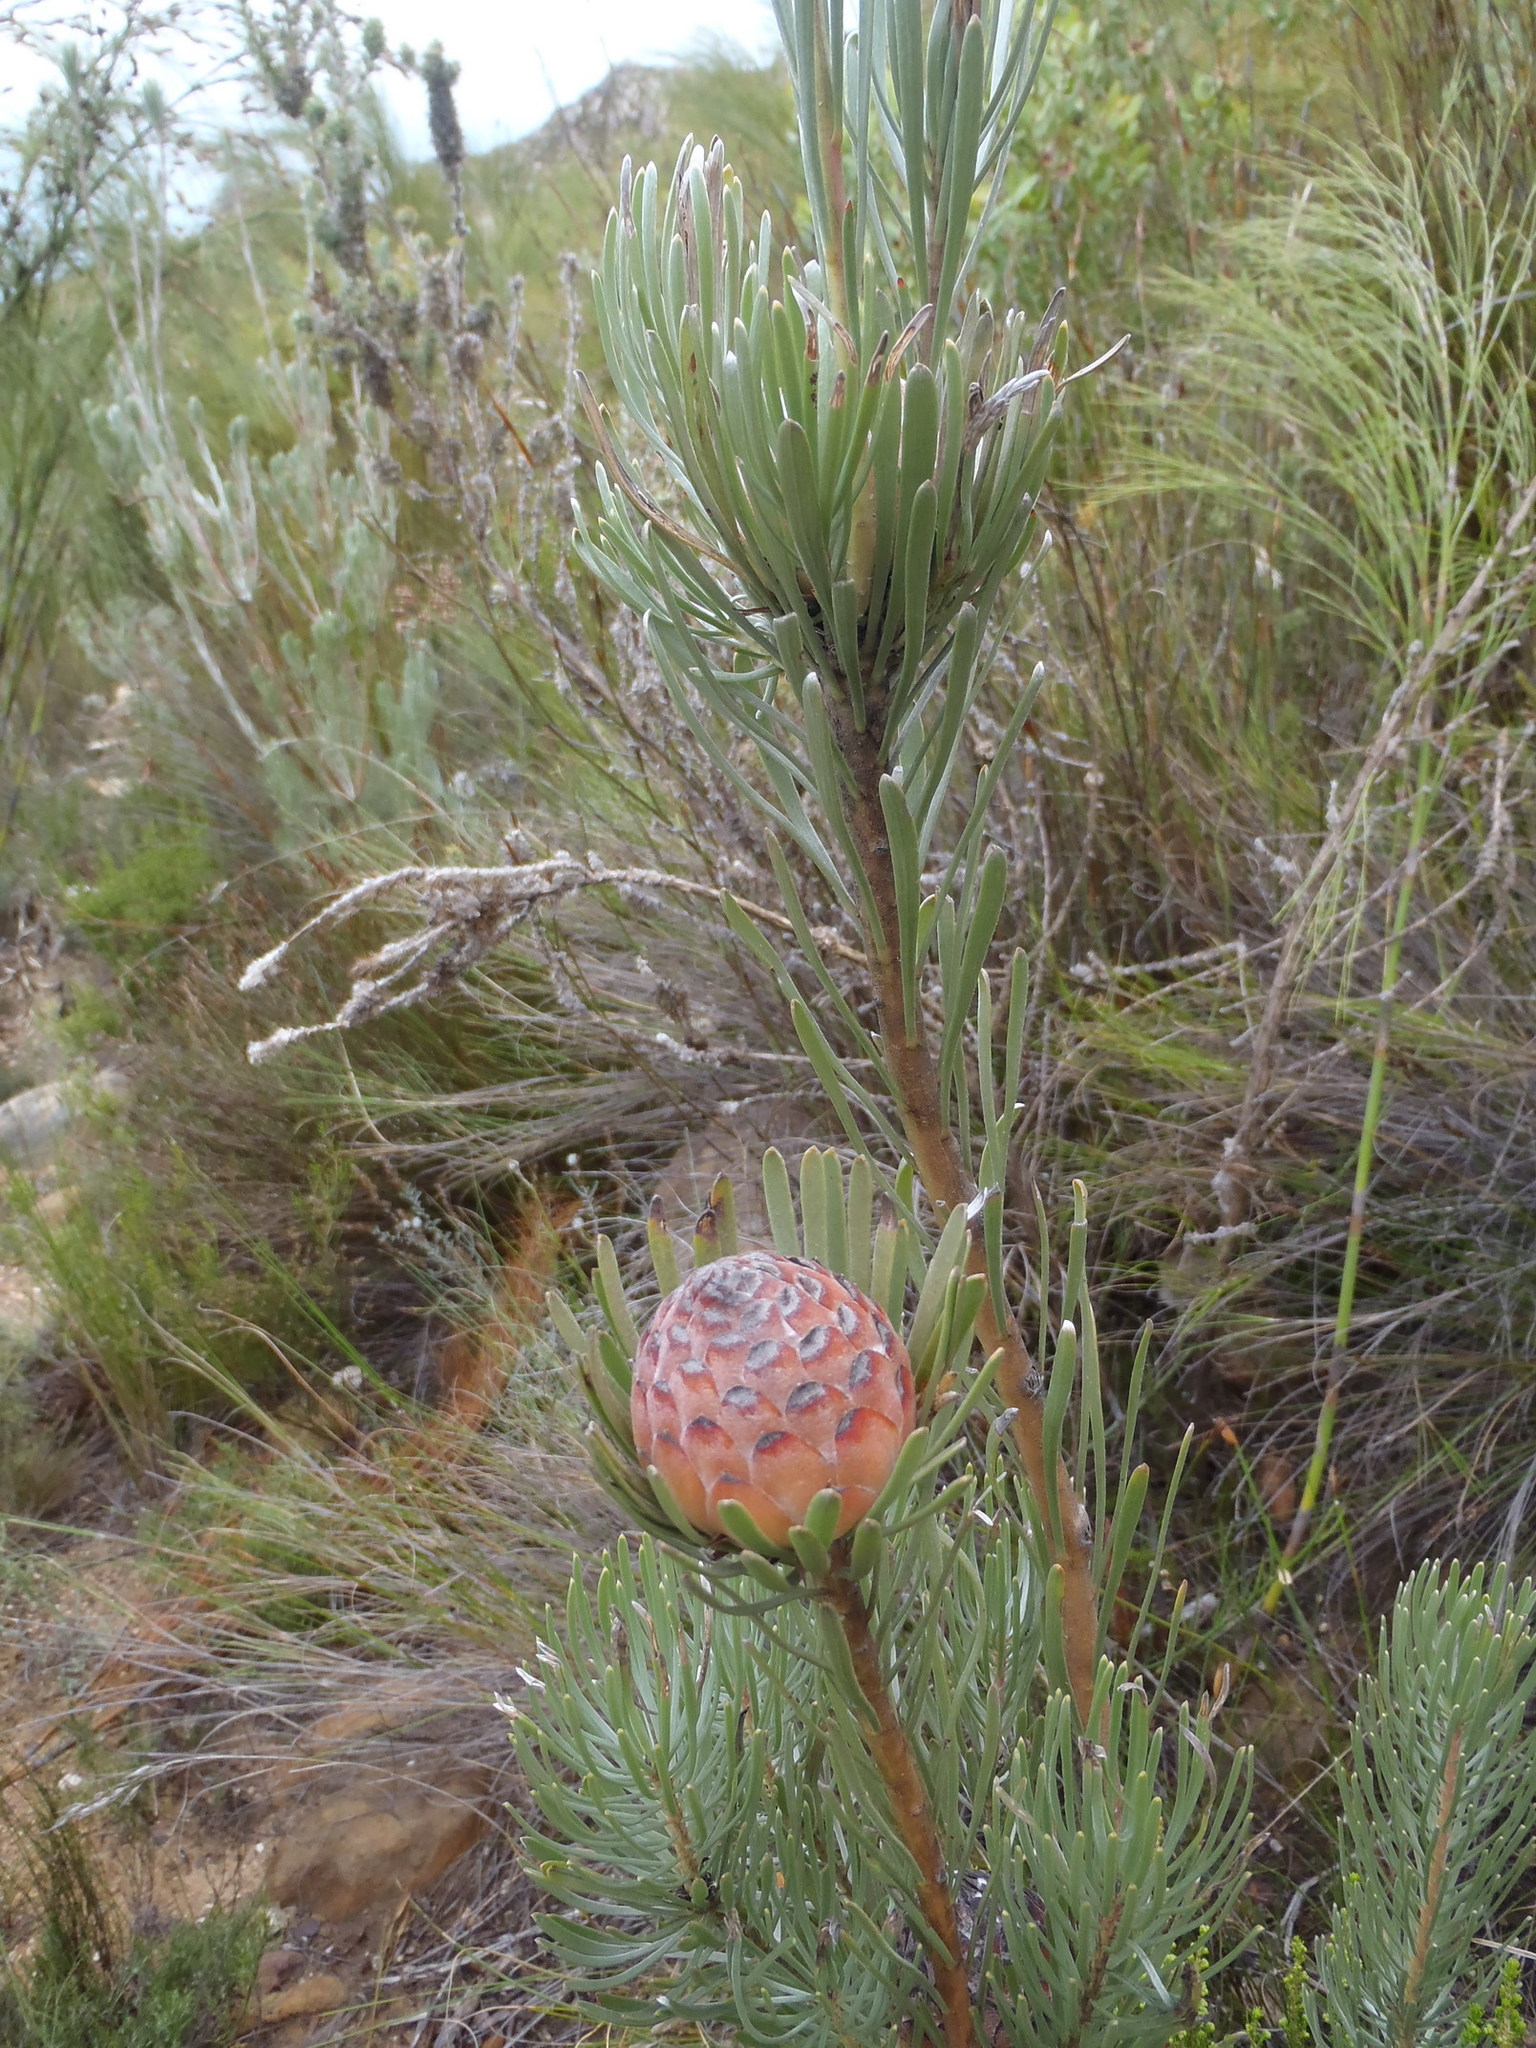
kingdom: Plantae
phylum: Tracheophyta
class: Magnoliopsida
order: Proteales
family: Proteaceae
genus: Leucadendron
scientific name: Leucadendron album
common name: Linear-leaf conebush
